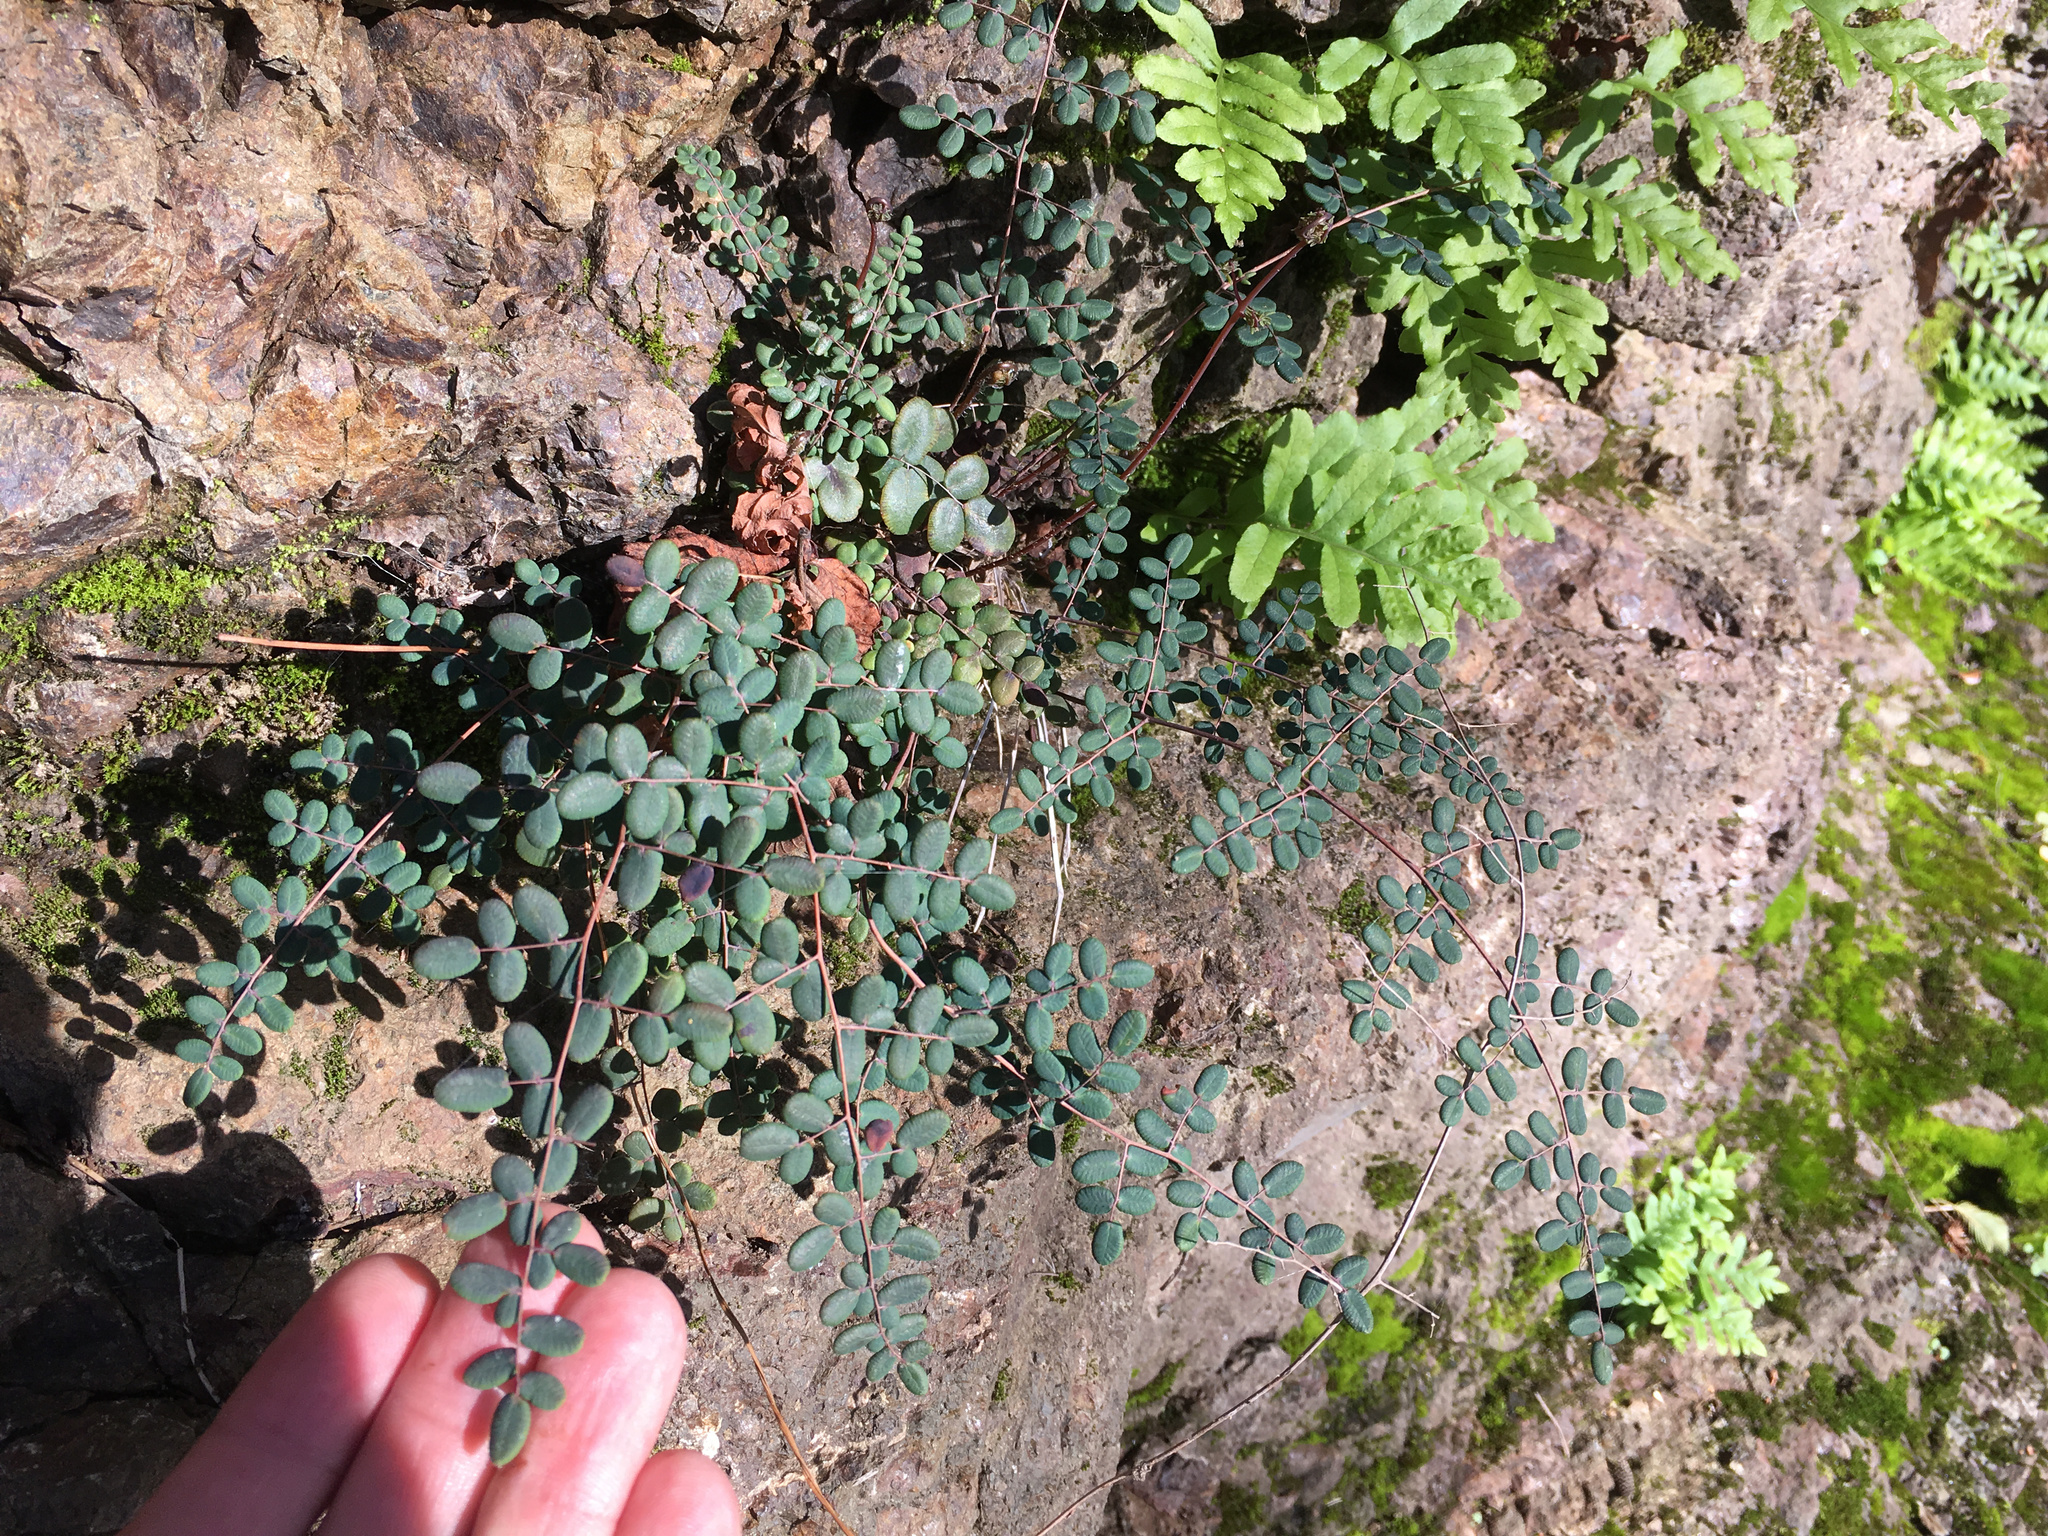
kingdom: Plantae
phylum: Tracheophyta
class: Polypodiopsida
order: Polypodiales
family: Pteridaceae
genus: Pellaea
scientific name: Pellaea andromedifolia
